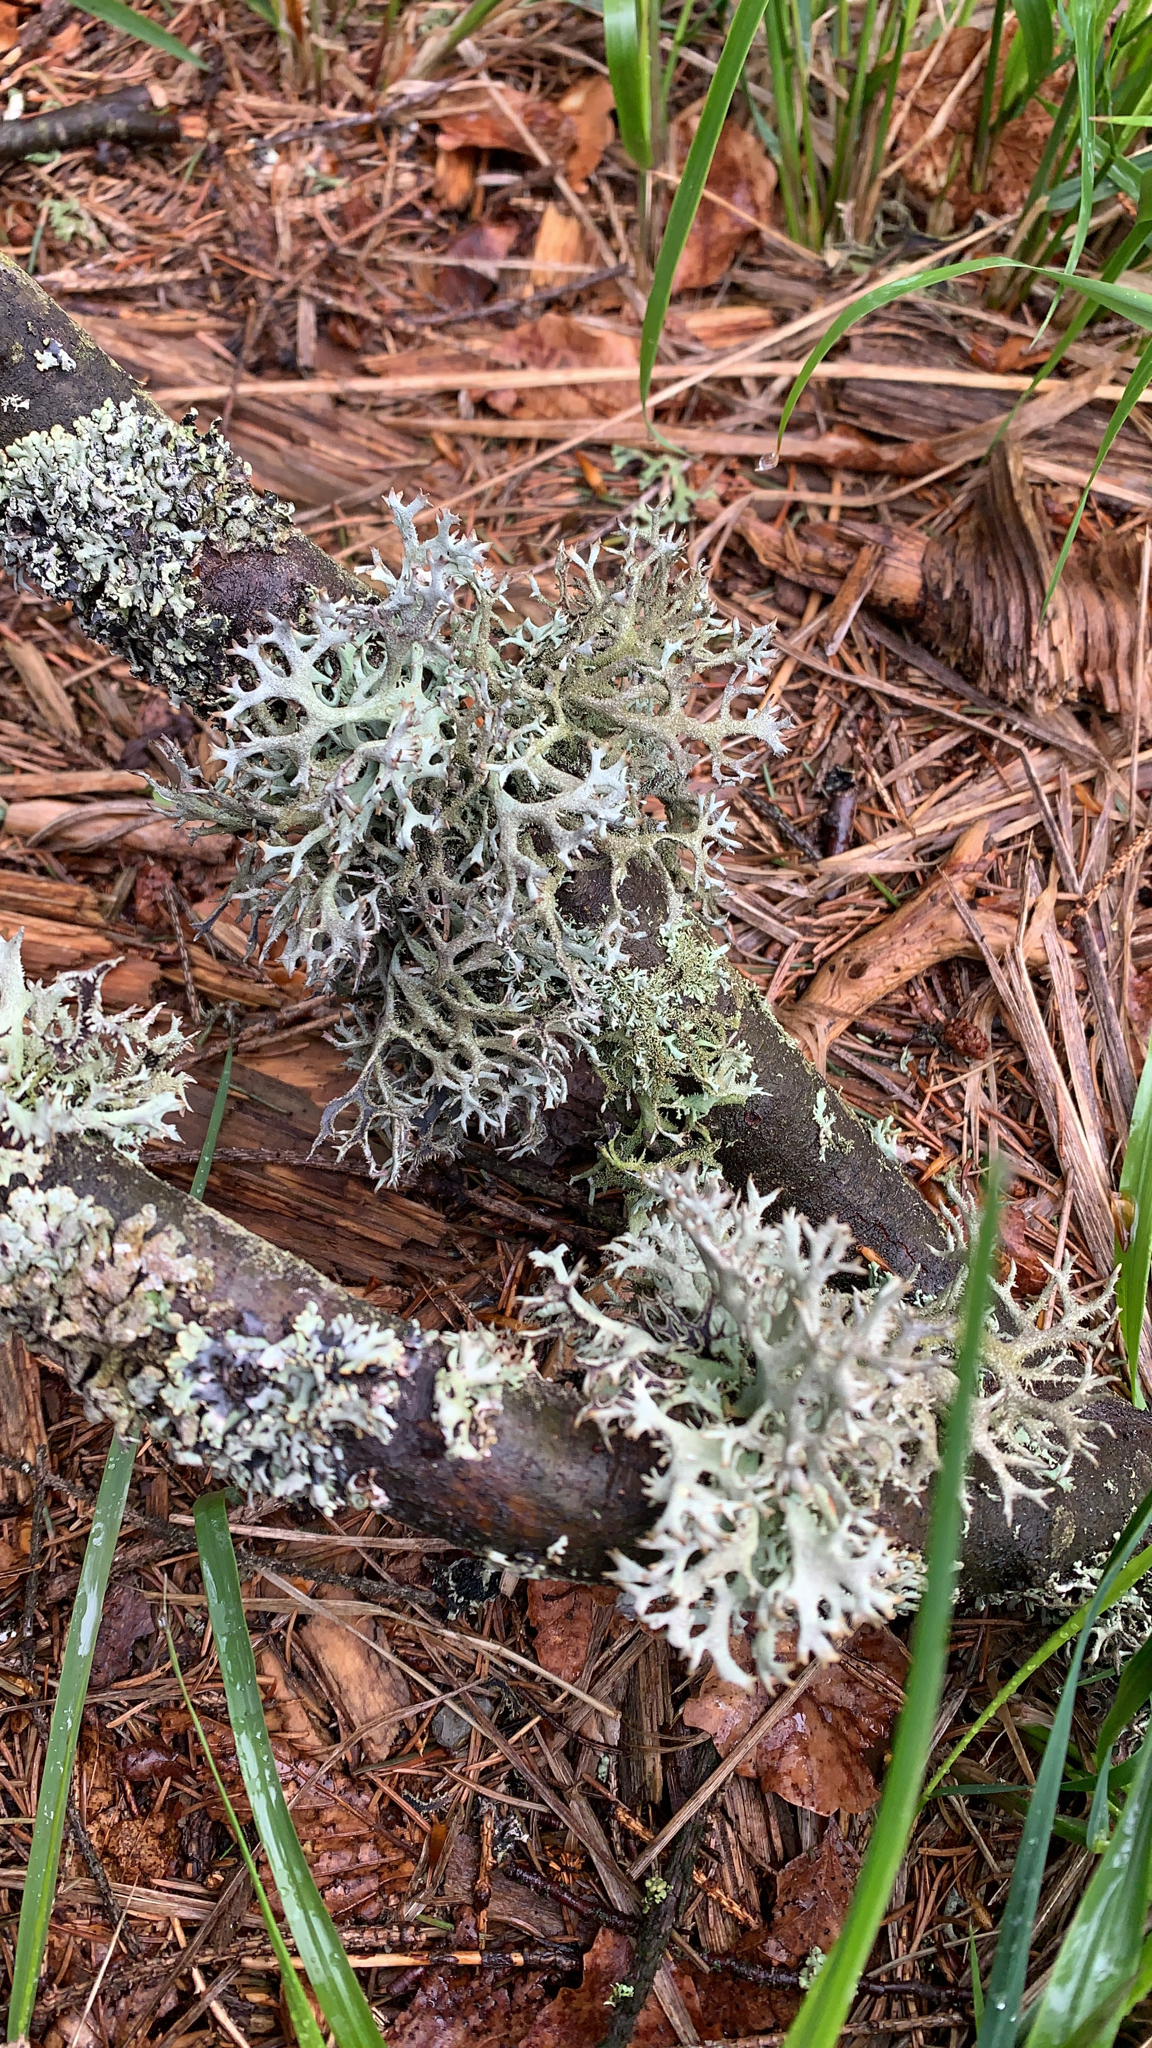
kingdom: Fungi
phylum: Ascomycota
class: Lecanoromycetes
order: Lecanorales
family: Parmeliaceae
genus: Pseudevernia
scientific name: Pseudevernia furfuracea
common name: Tree moss
